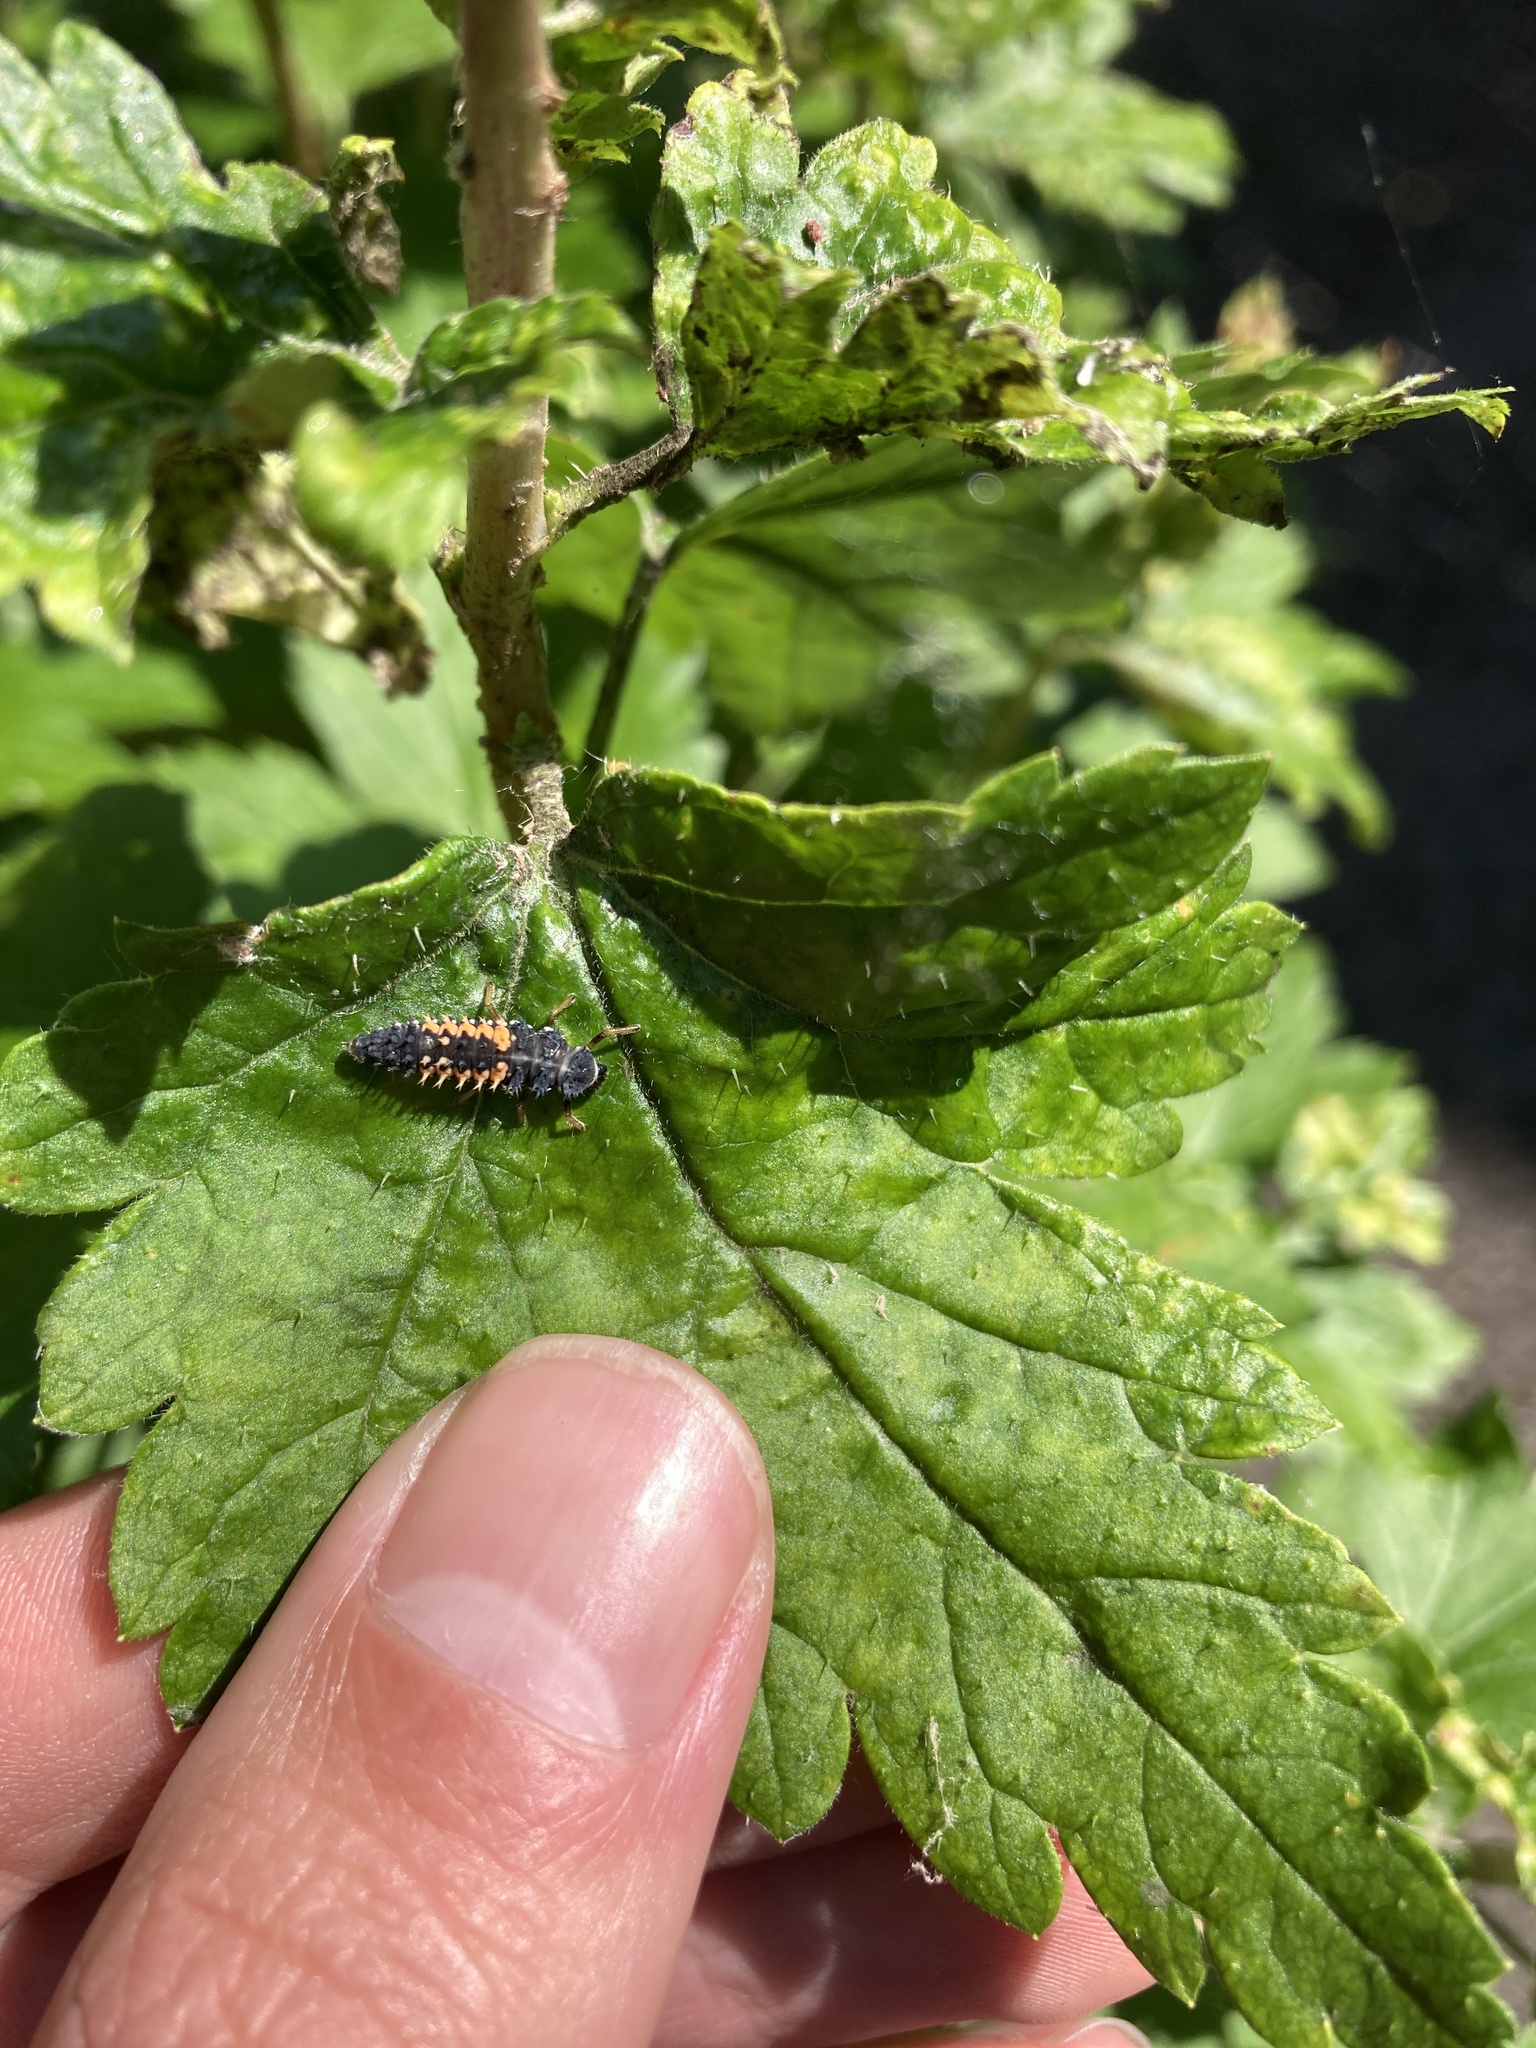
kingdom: Animalia
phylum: Arthropoda
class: Insecta
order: Coleoptera
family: Coccinellidae
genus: Harmonia
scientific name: Harmonia axyridis
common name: Harlequin ladybird
